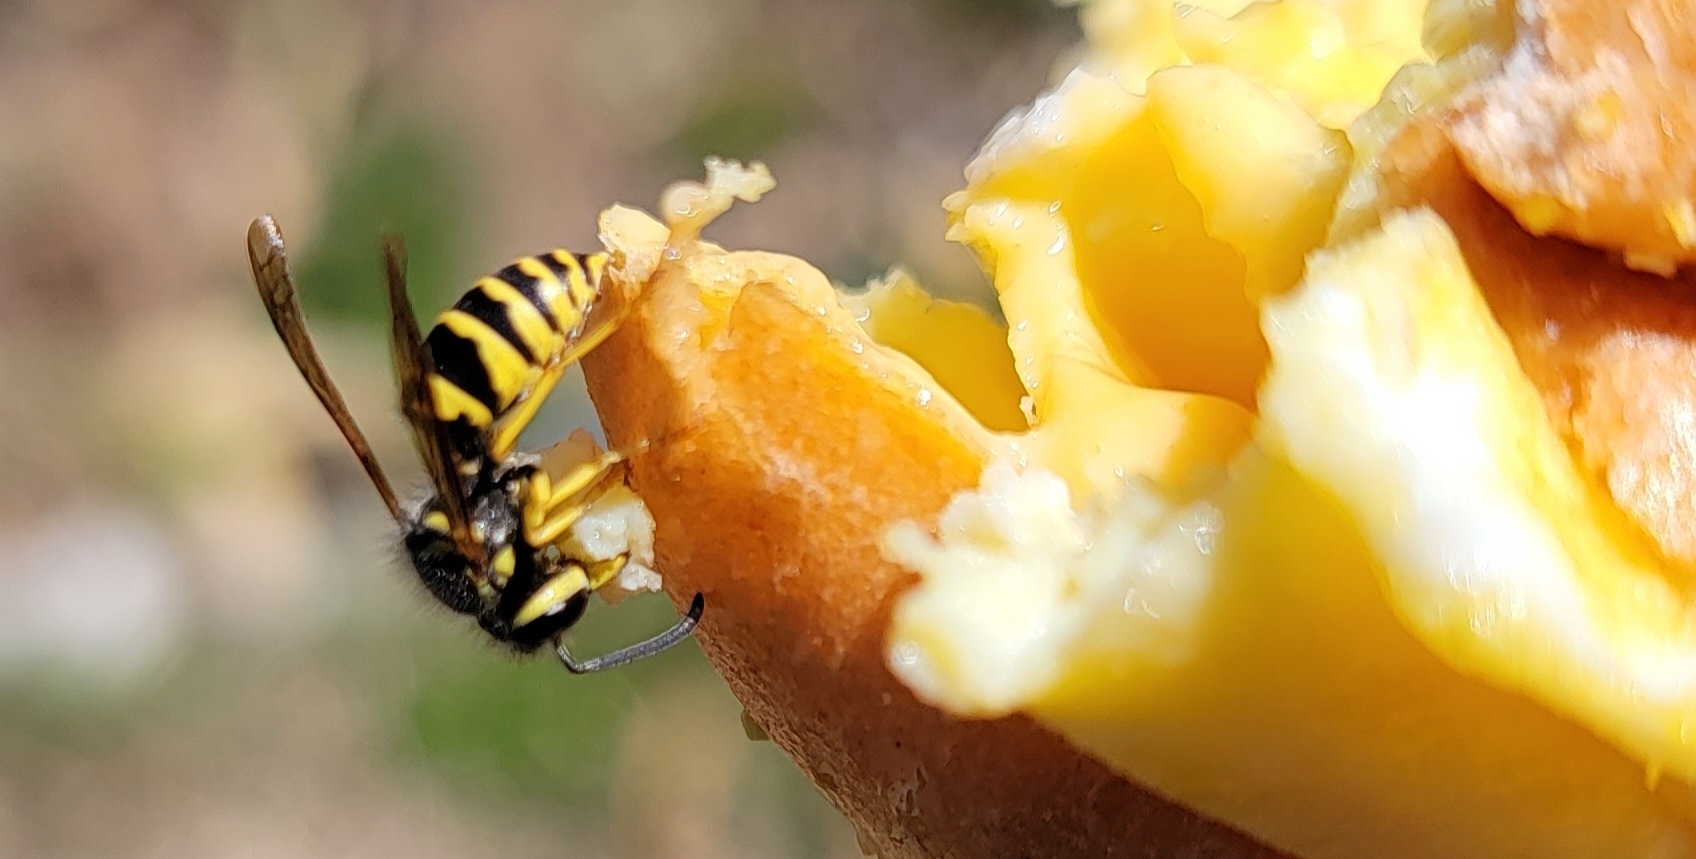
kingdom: Animalia
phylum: Arthropoda
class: Insecta
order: Hymenoptera
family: Vespidae
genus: Vespula
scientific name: Vespula maculifrons
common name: Eastern yellowjacket
